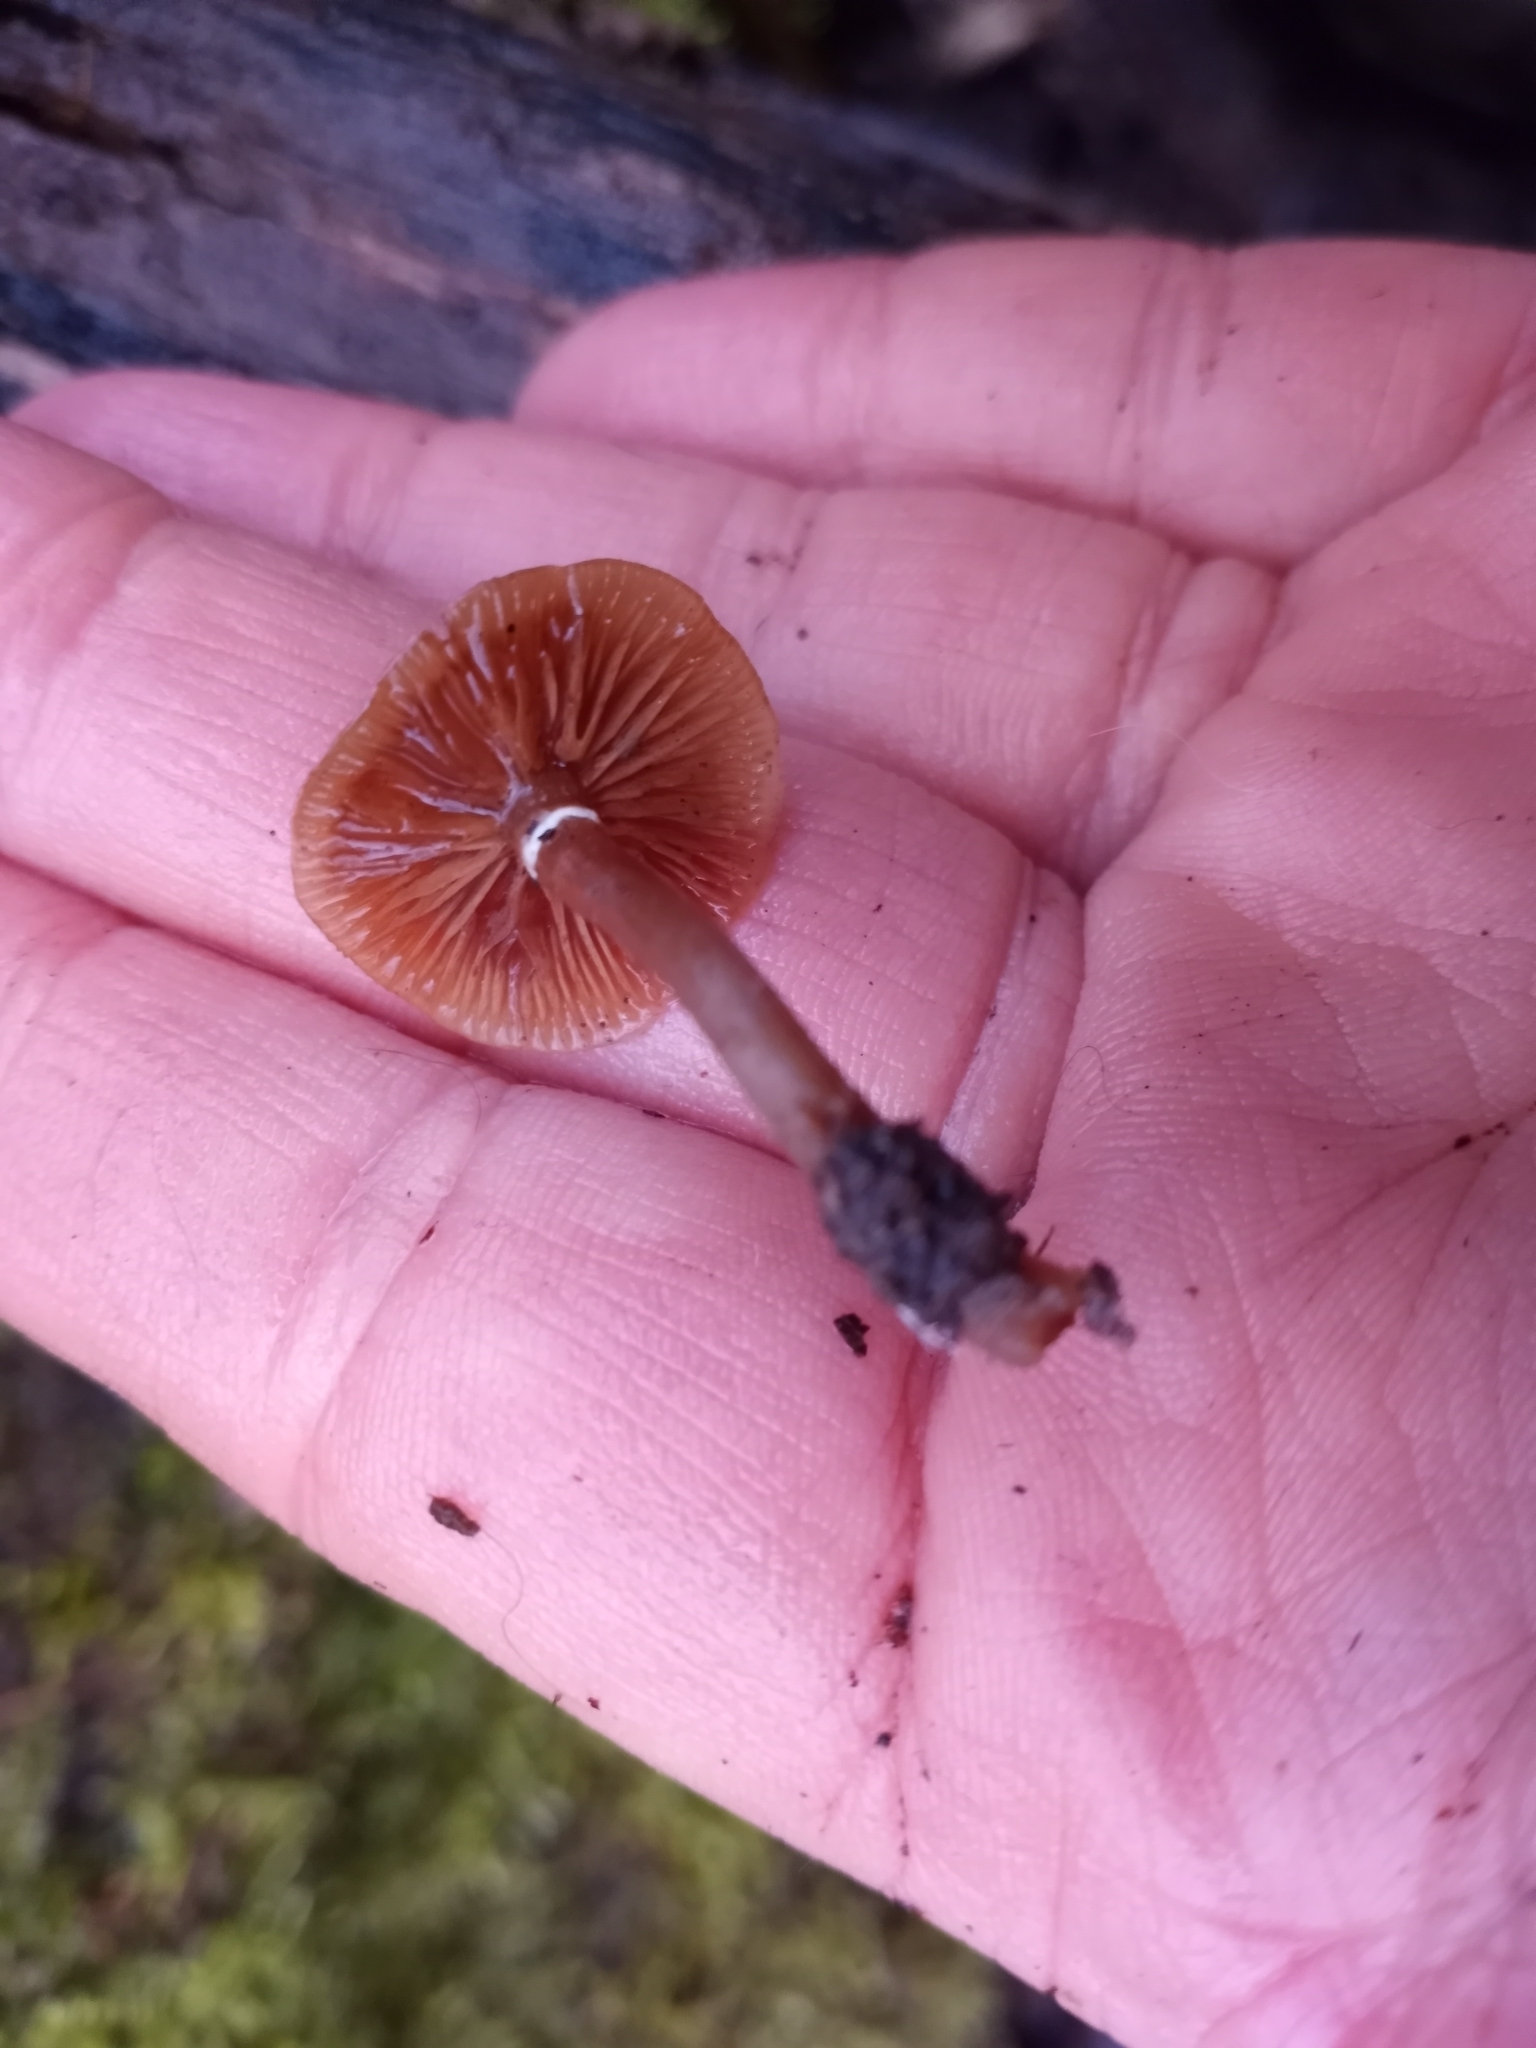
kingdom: Fungi
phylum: Basidiomycota
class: Agaricomycetes
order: Agaricales
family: Hymenogastraceae
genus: Galerina
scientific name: Galerina marginata
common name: Funeral bell
